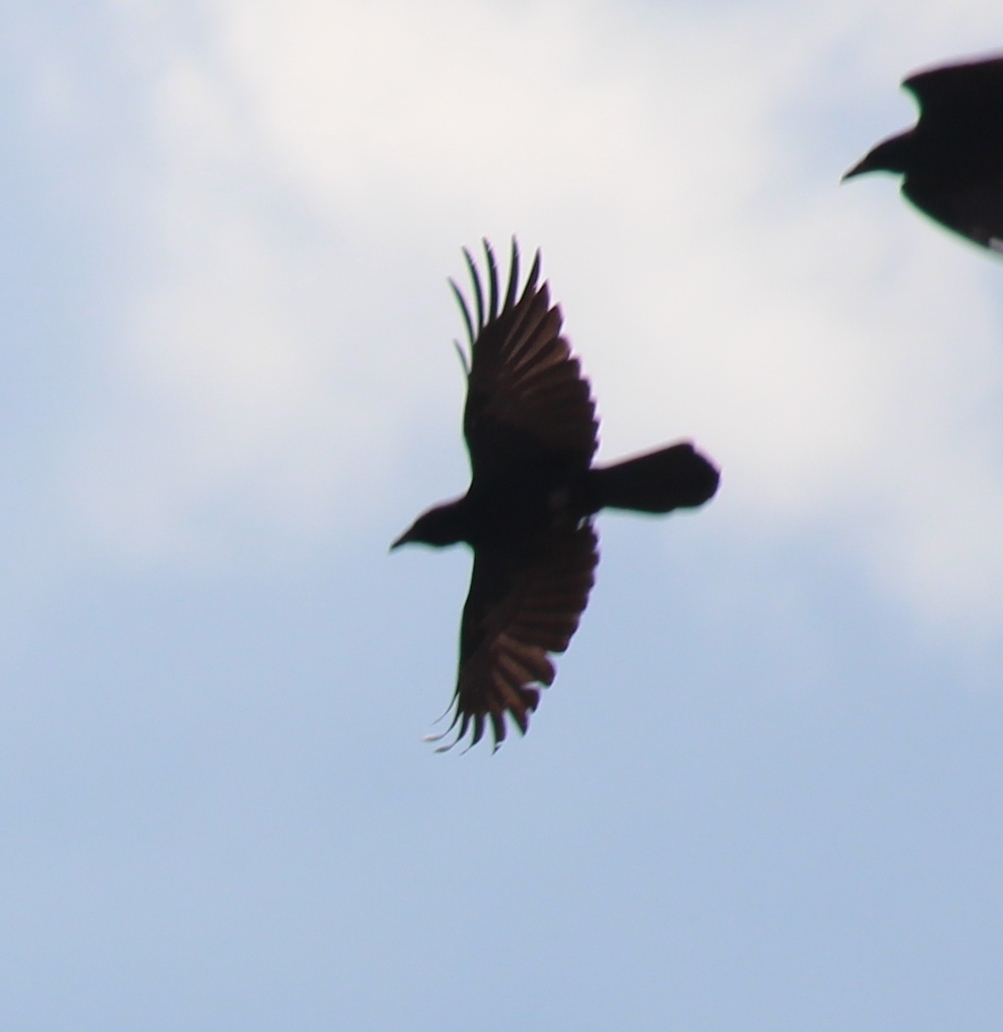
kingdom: Animalia
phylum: Chordata
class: Aves
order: Passeriformes
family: Corvidae
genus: Corvus
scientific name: Corvus corone
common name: Carrion crow
